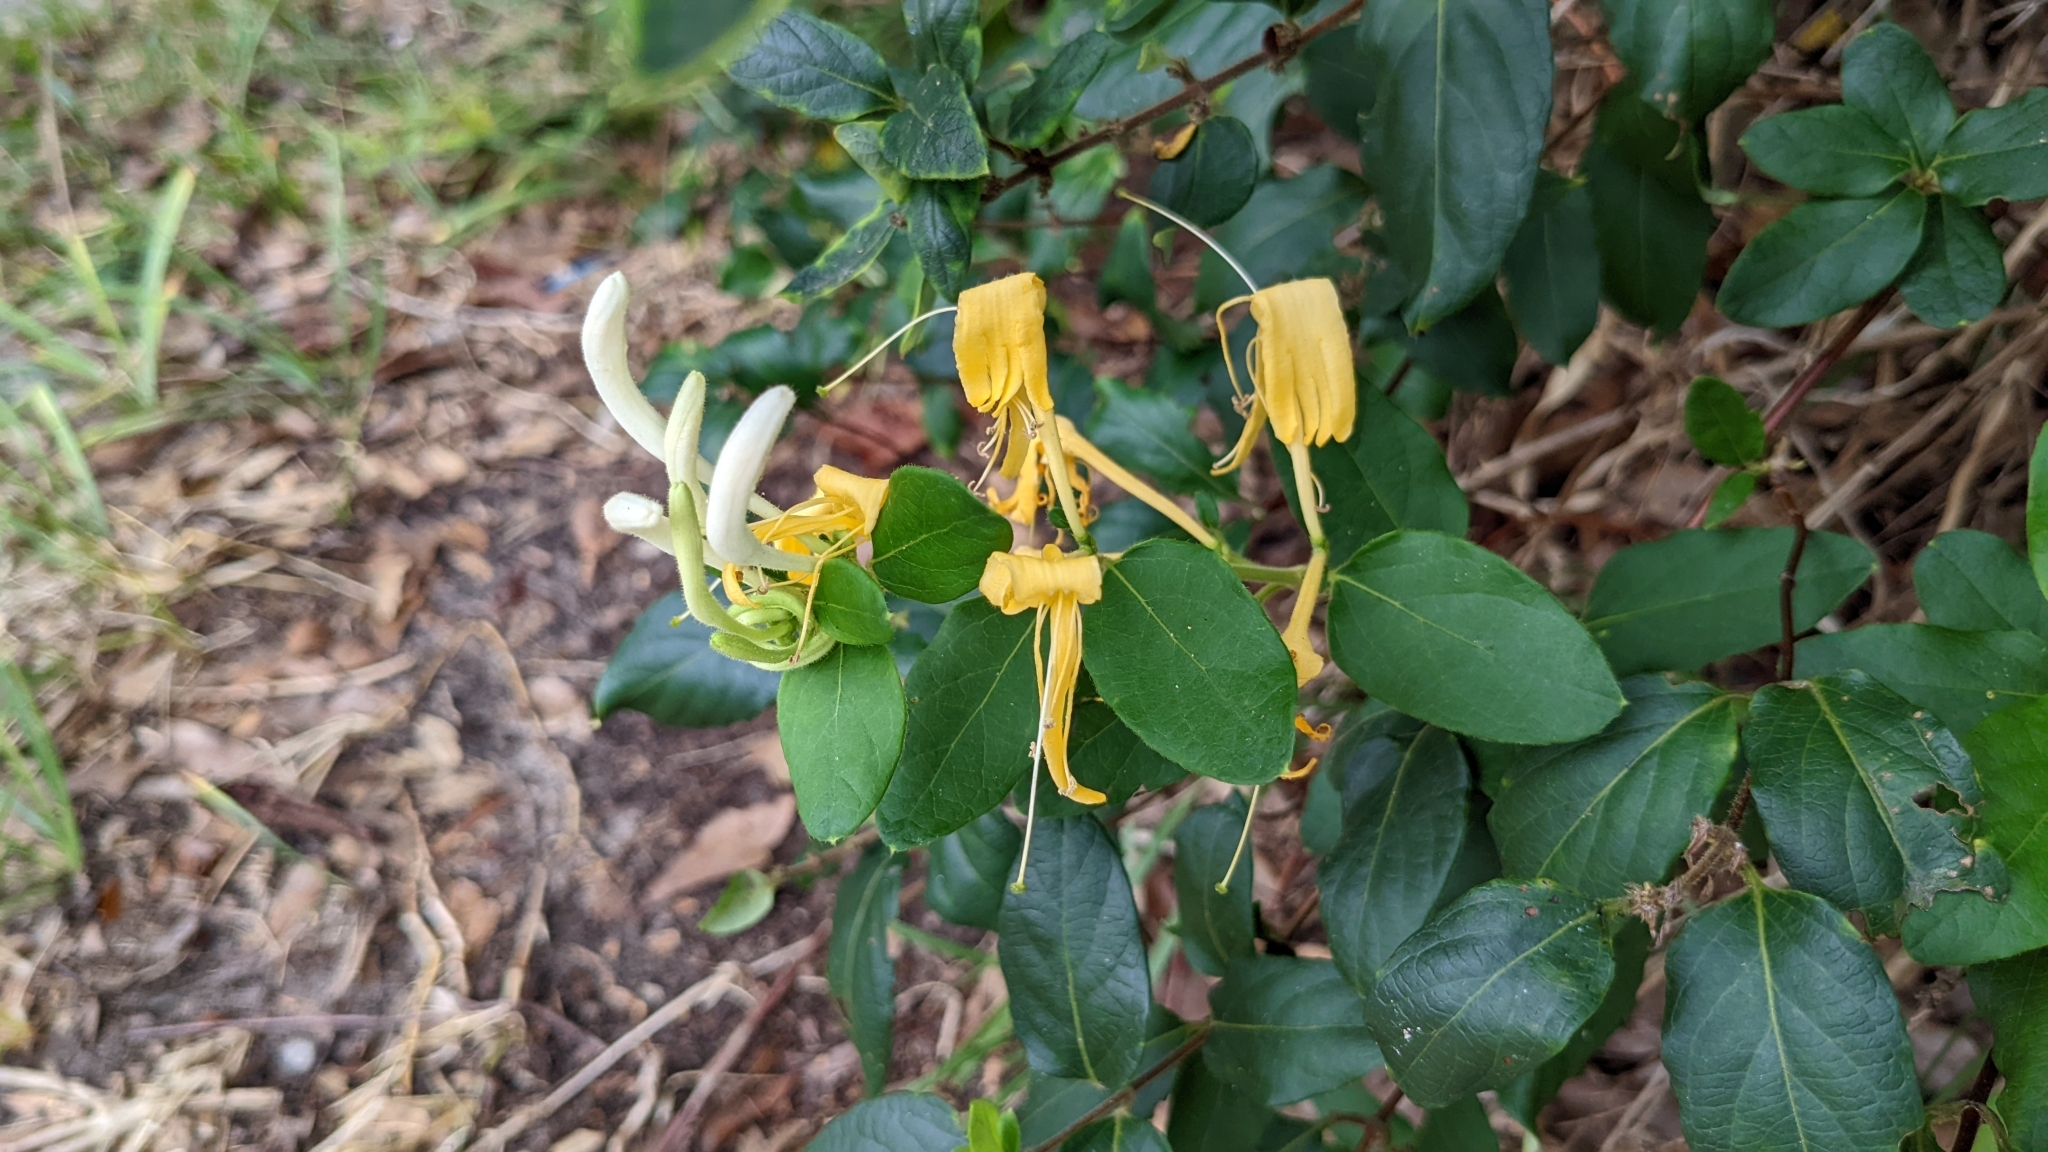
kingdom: Plantae
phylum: Tracheophyta
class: Magnoliopsida
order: Dipsacales
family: Caprifoliaceae
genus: Lonicera
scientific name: Lonicera japonica
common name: Japanese honeysuckle
